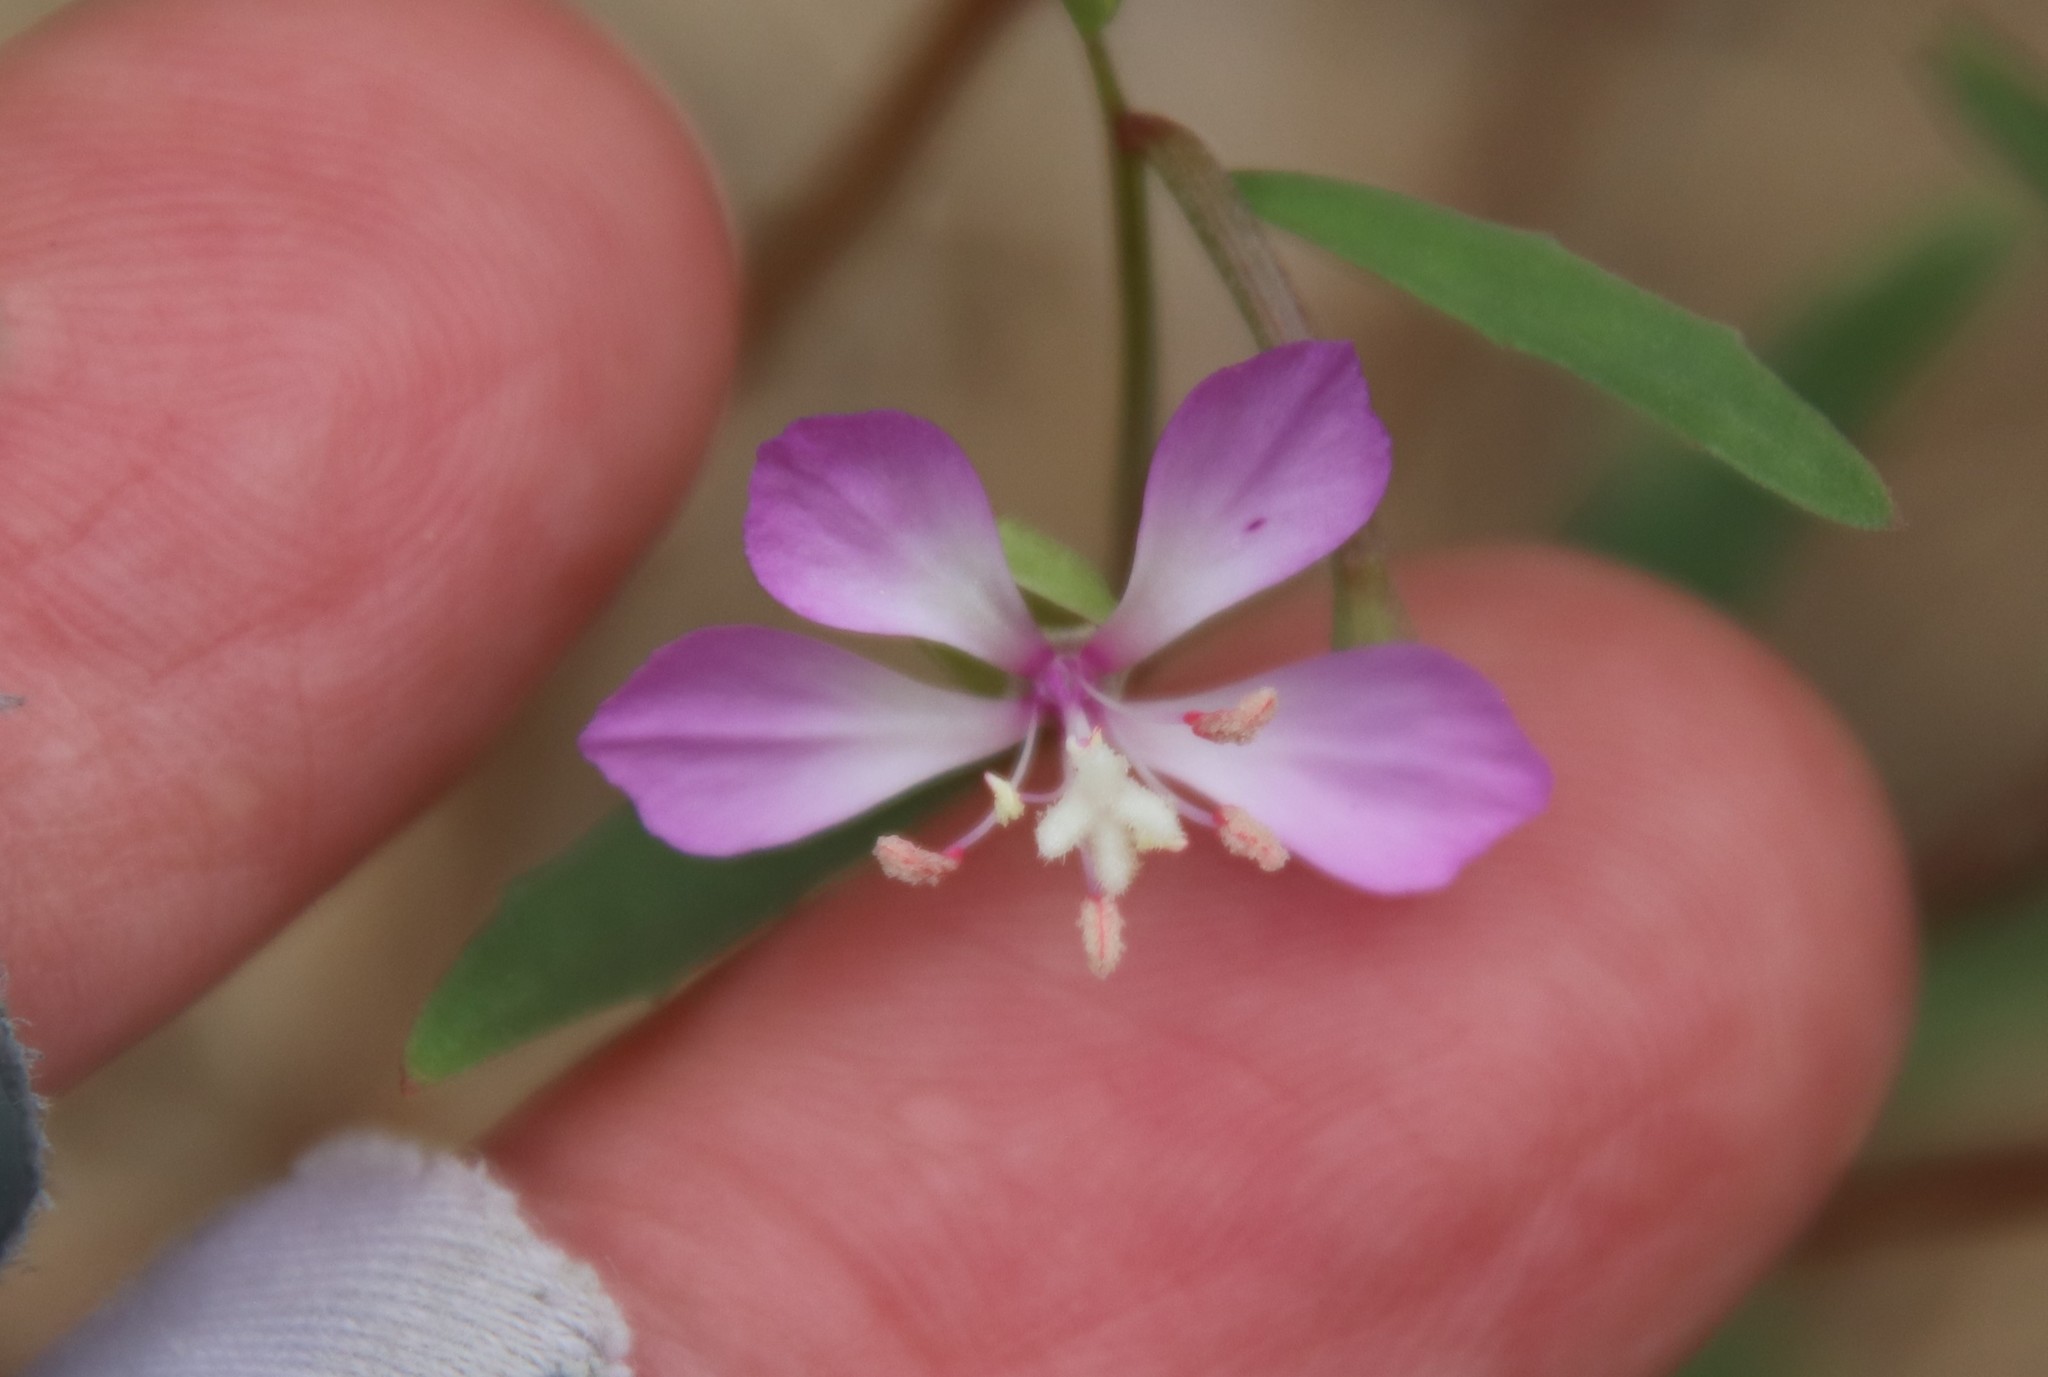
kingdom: Plantae
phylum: Tracheophyta
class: Magnoliopsida
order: Myrtales
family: Onagraceae
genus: Clarkia
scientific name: Clarkia delicata
